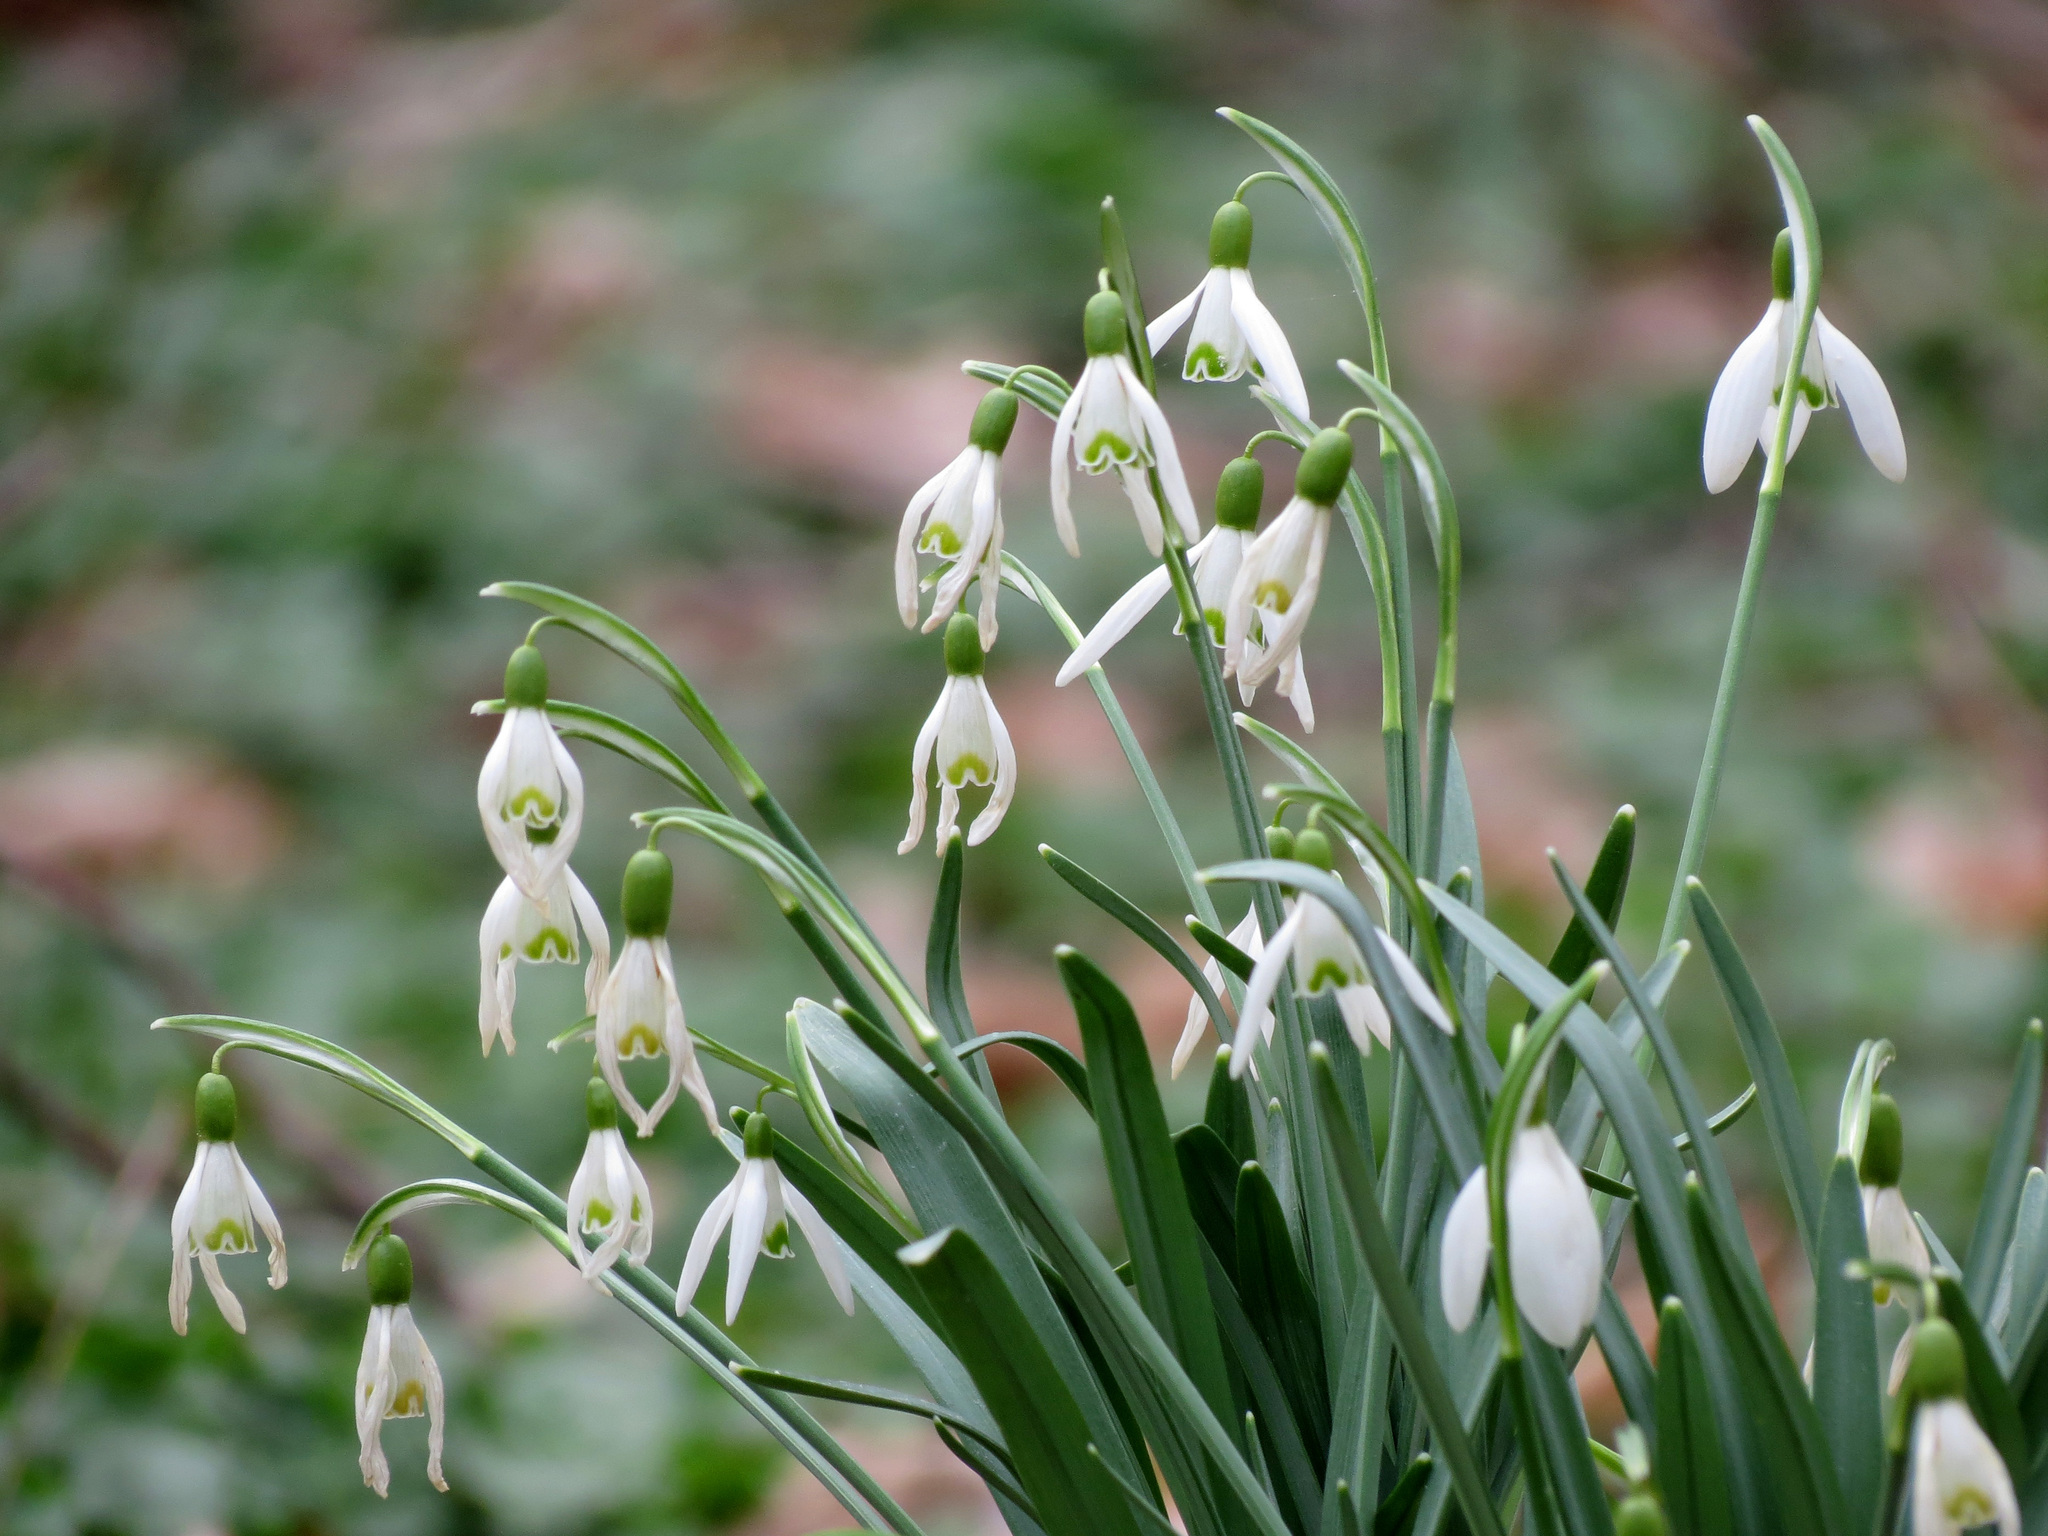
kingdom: Plantae
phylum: Tracheophyta
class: Liliopsida
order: Asparagales
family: Amaryllidaceae
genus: Galanthus
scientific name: Galanthus nivalis
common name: Snowdrop
